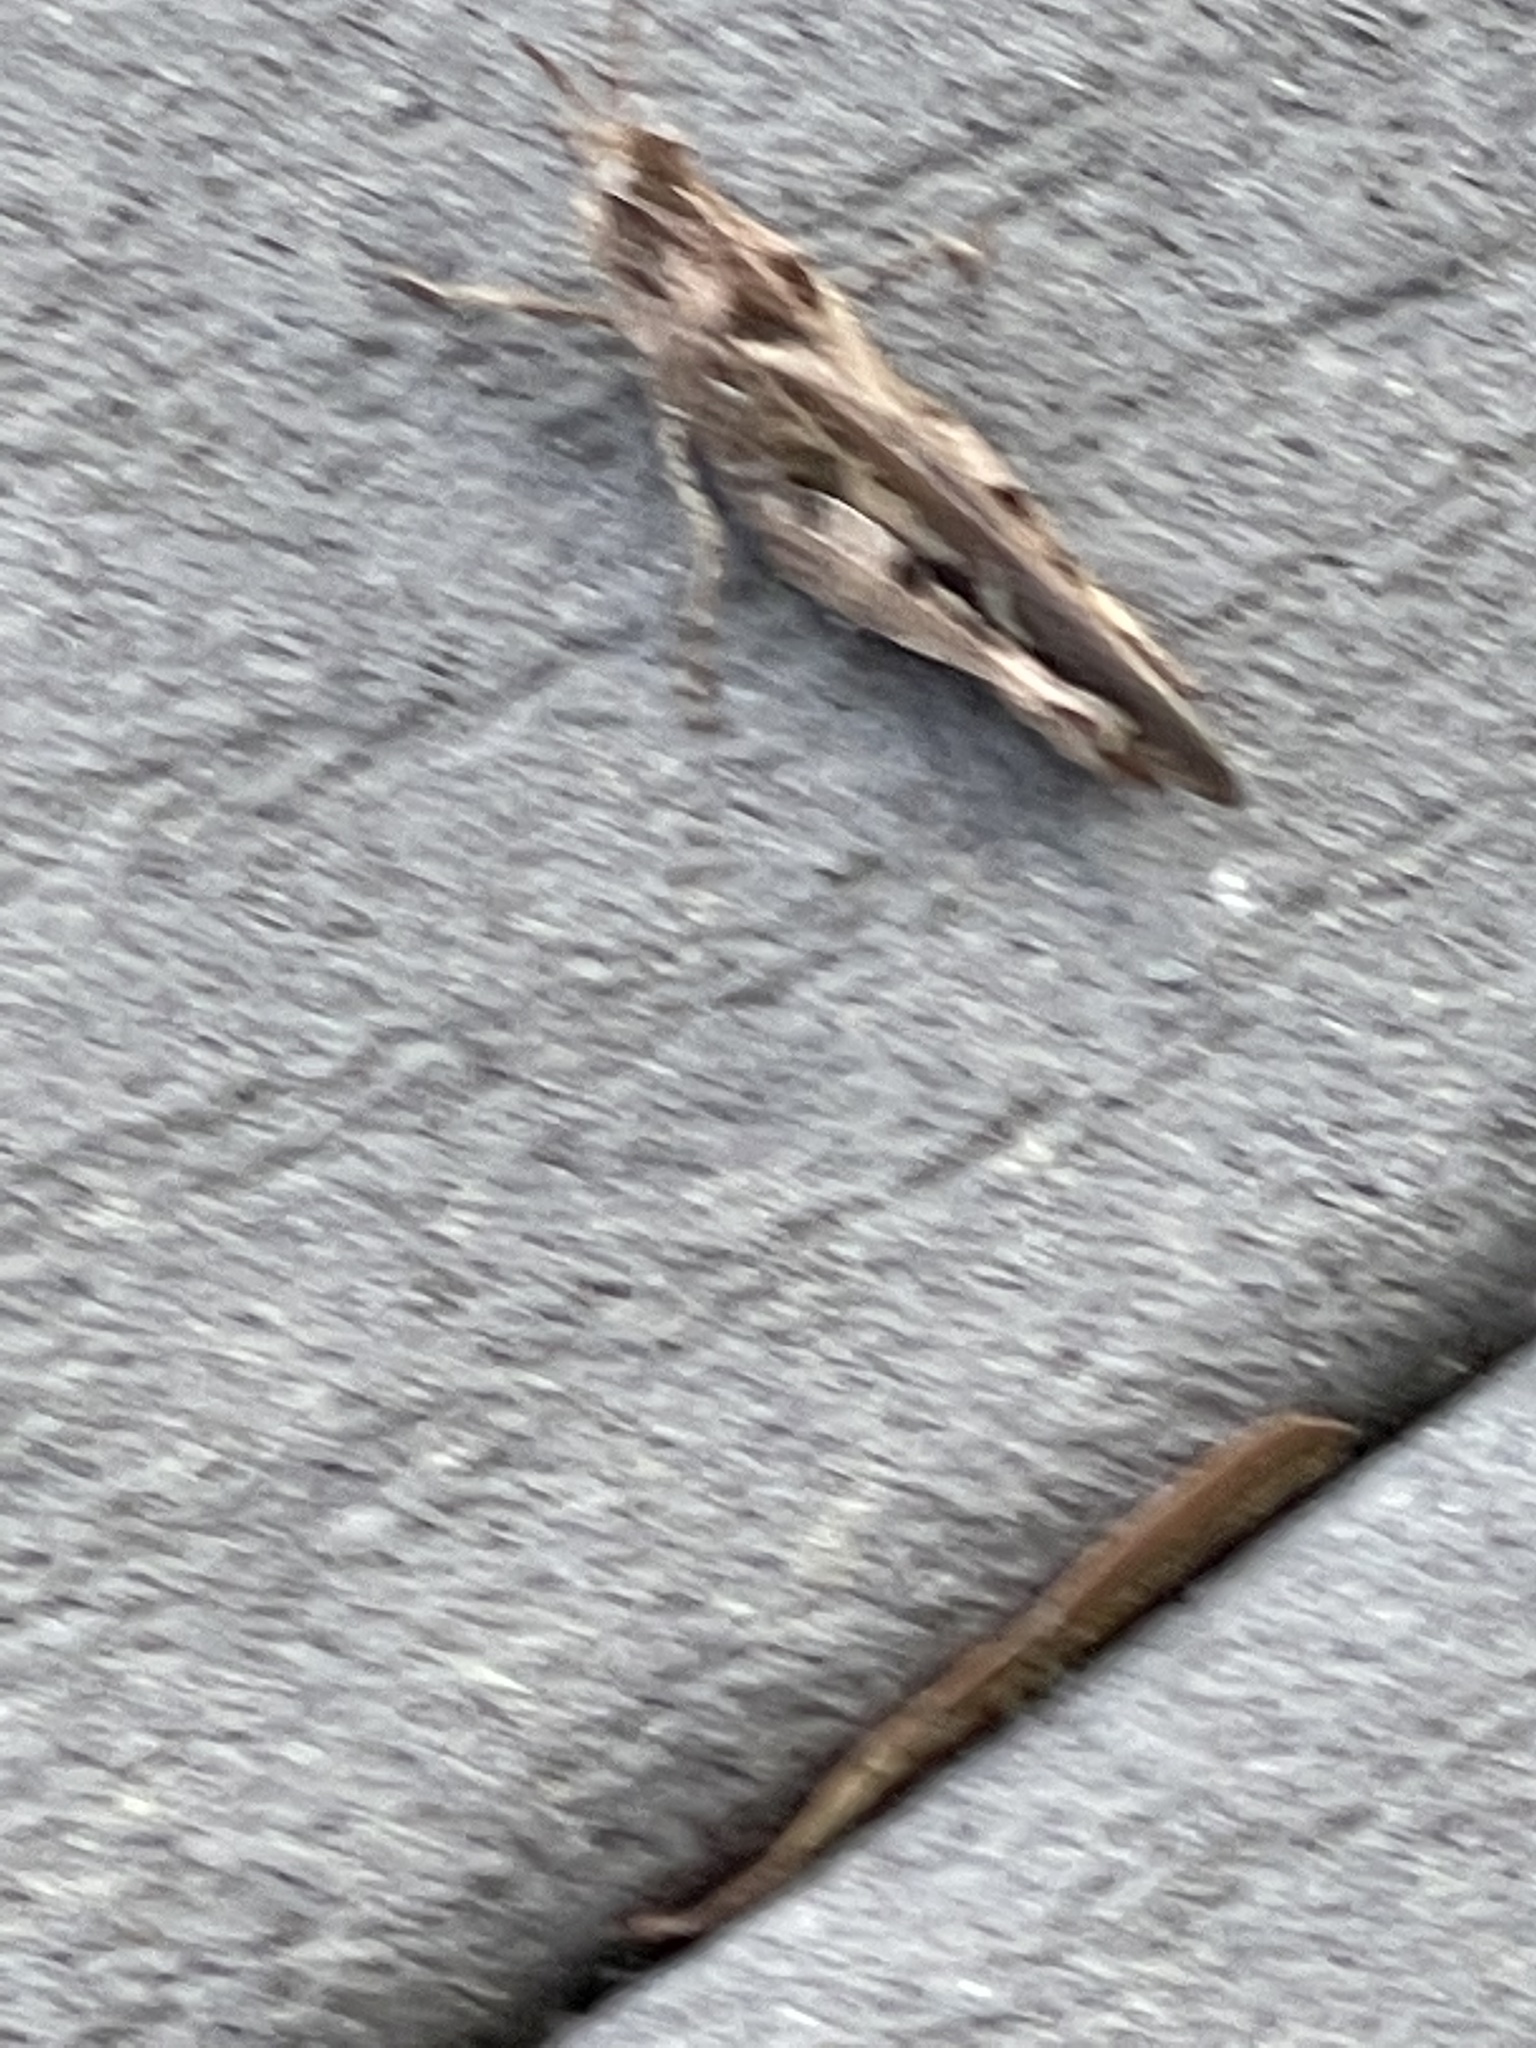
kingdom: Animalia
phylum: Arthropoda
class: Insecta
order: Orthoptera
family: Acrididae
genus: Chortophaga
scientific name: Chortophaga australior
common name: Southern green-striped grasshopper
